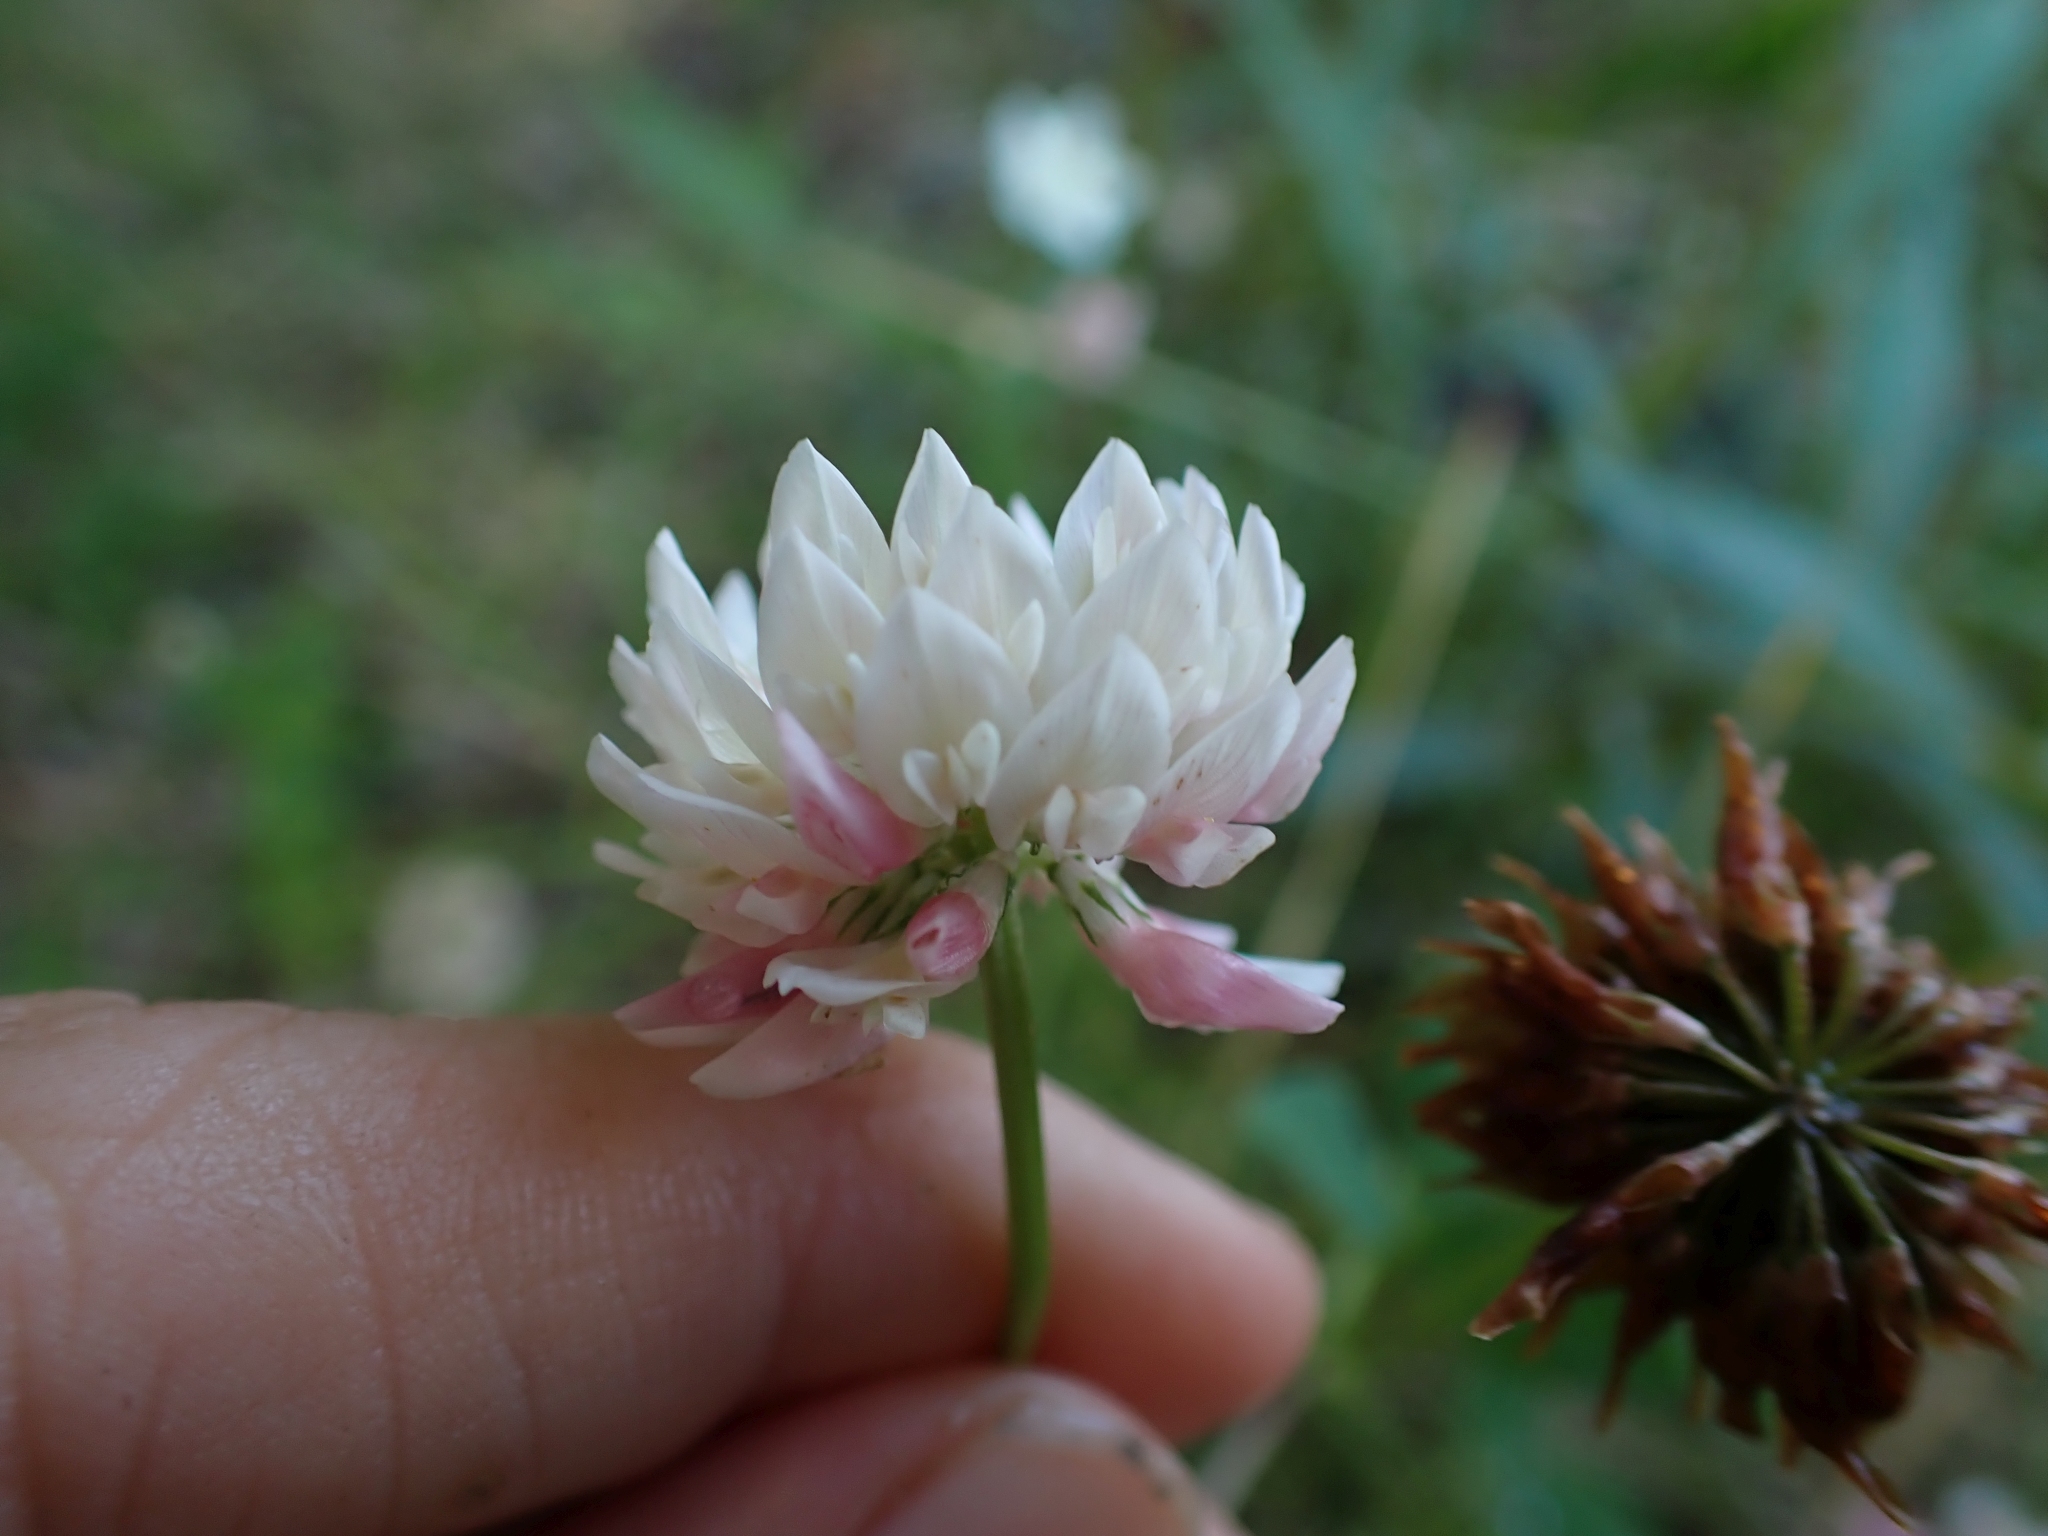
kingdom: Plantae
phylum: Tracheophyta
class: Magnoliopsida
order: Fabales
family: Fabaceae
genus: Trifolium
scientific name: Trifolium hybridum
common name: Alsike clover
